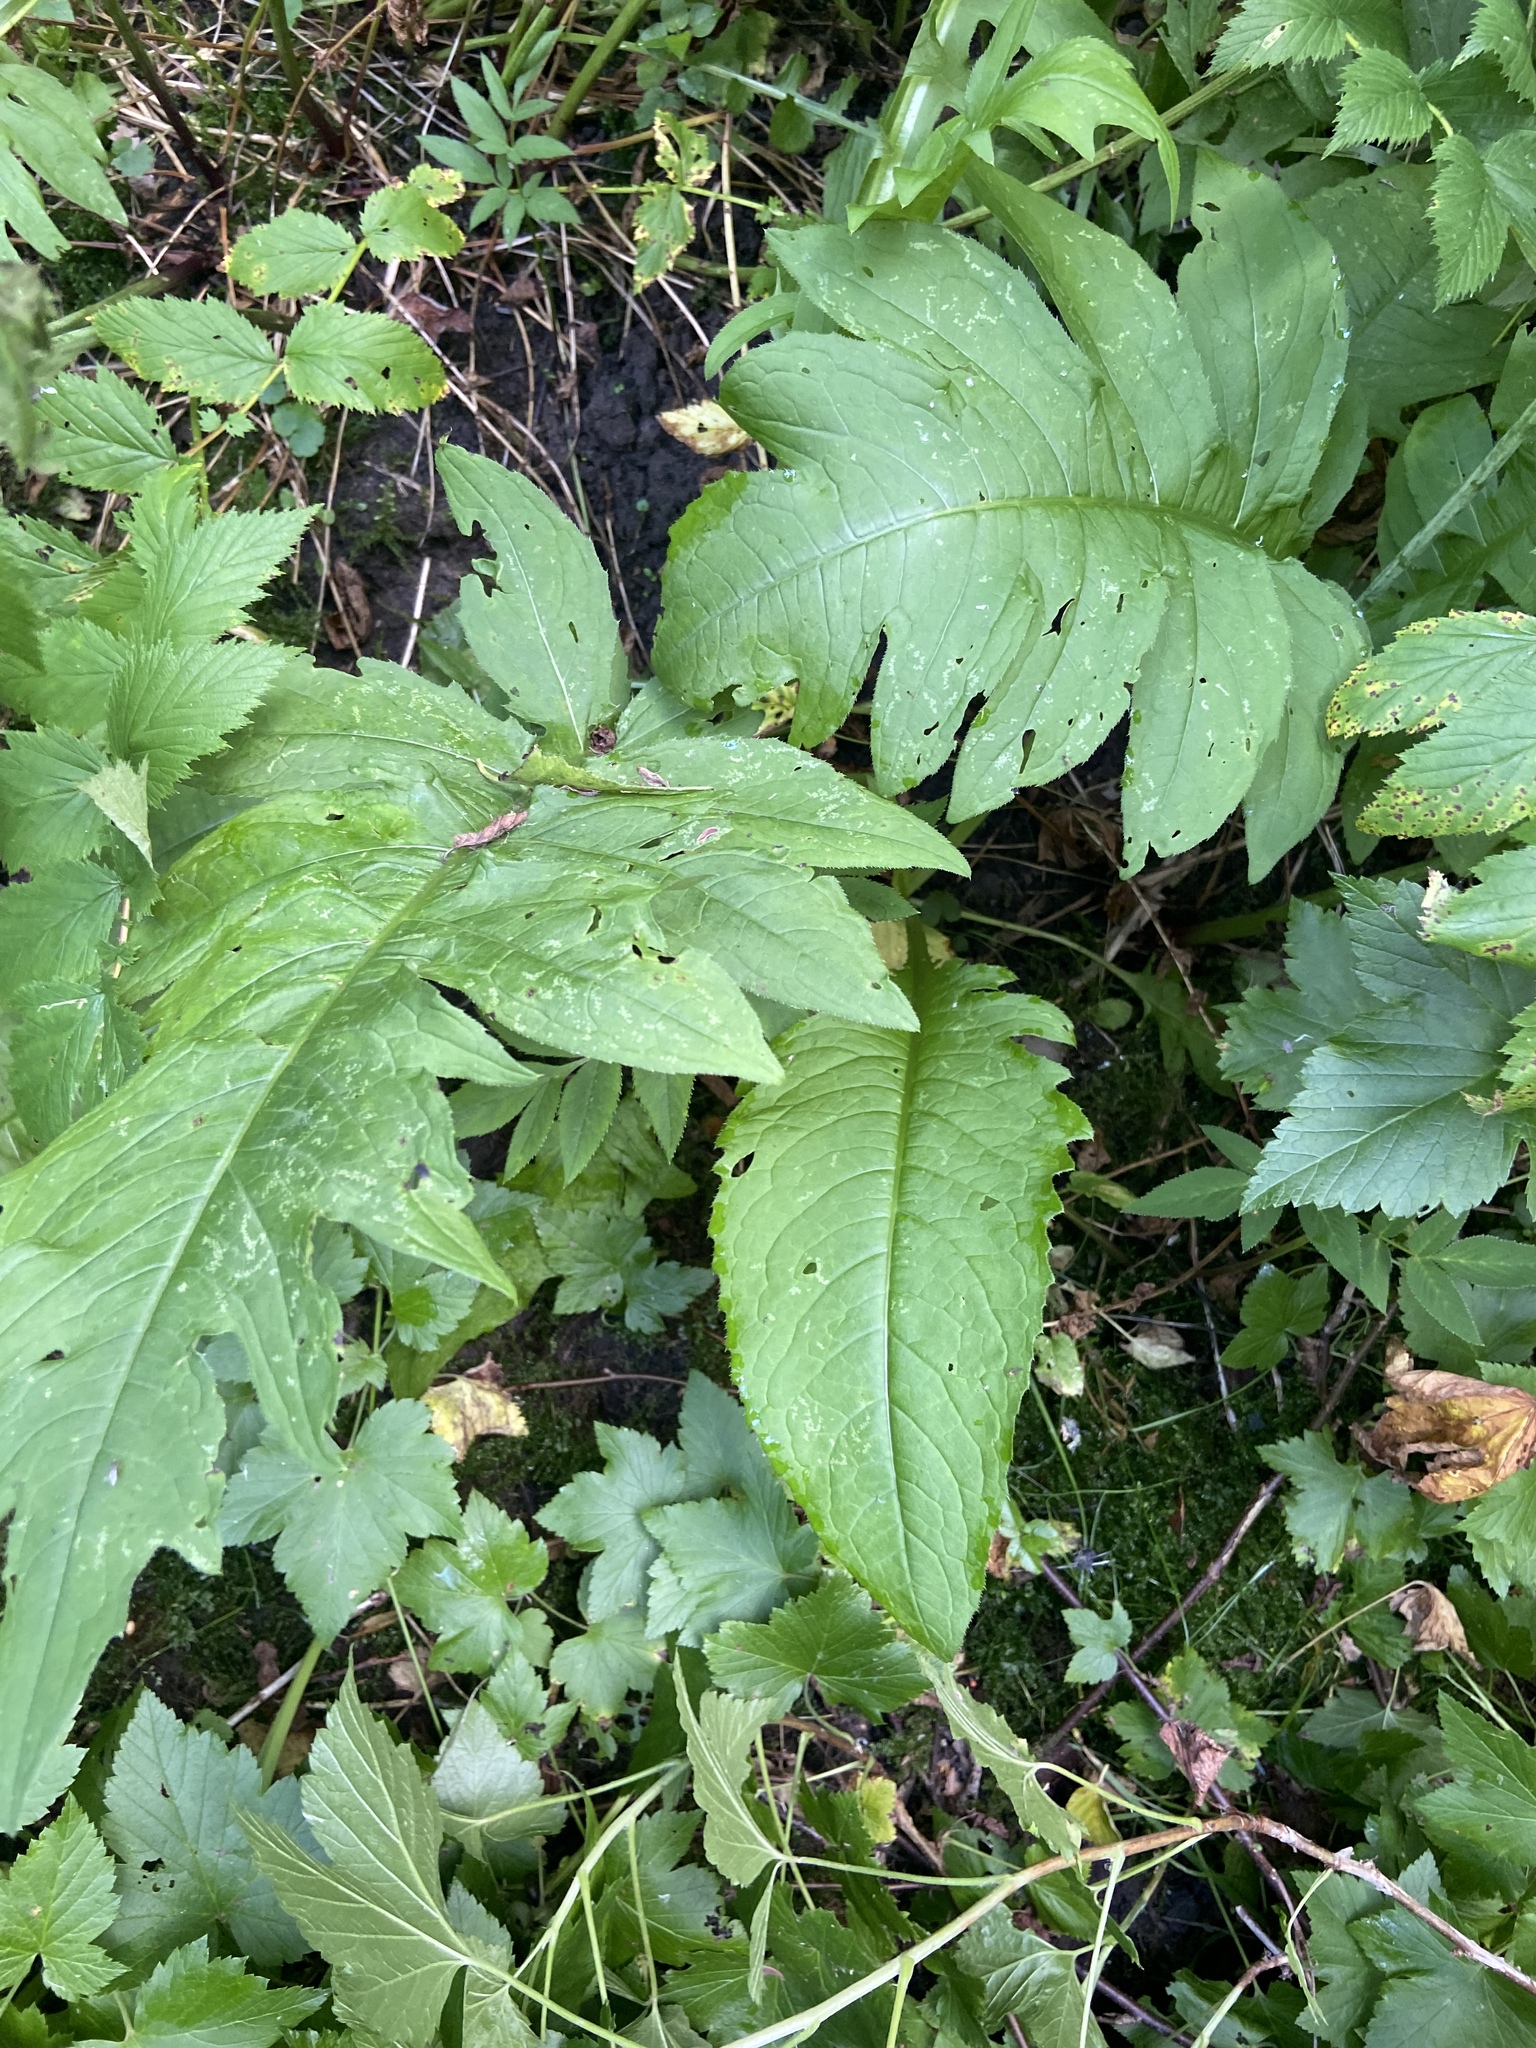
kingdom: Plantae
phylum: Tracheophyta
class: Magnoliopsida
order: Asterales
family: Asteraceae
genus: Cirsium
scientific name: Cirsium oleraceum
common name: Cabbage thistle
